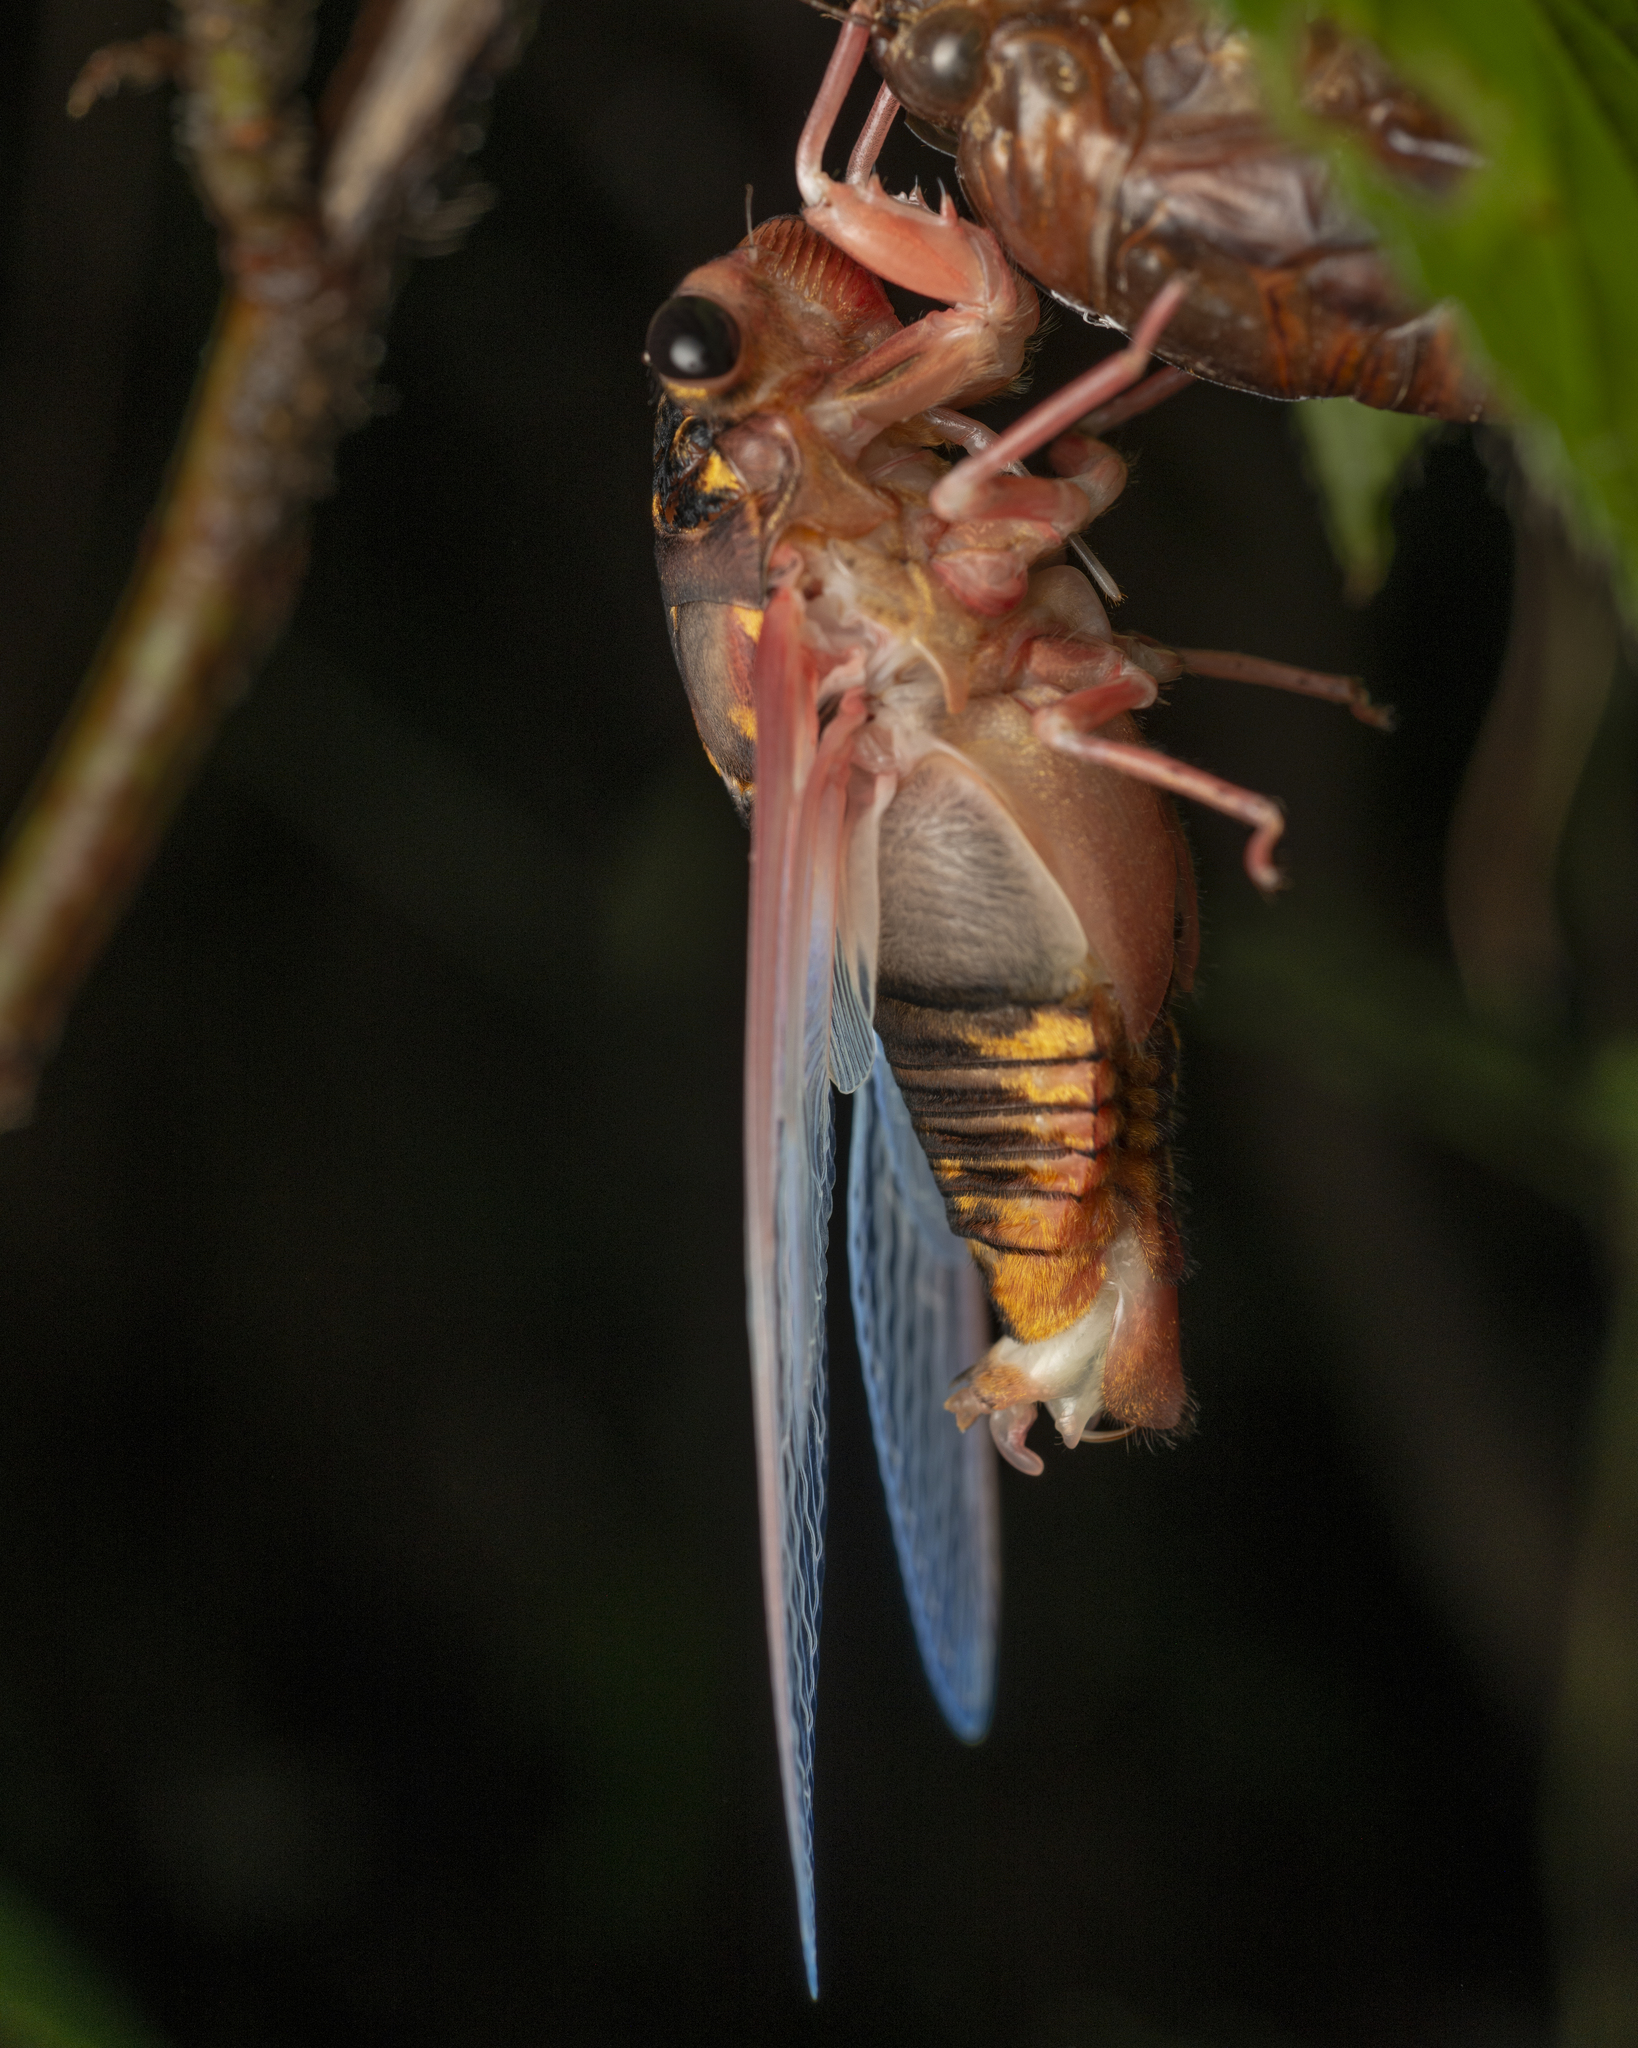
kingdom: Animalia
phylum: Arthropoda
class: Insecta
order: Hemiptera
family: Cicadidae
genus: Cryptotympana
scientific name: Cryptotympana mandarina
